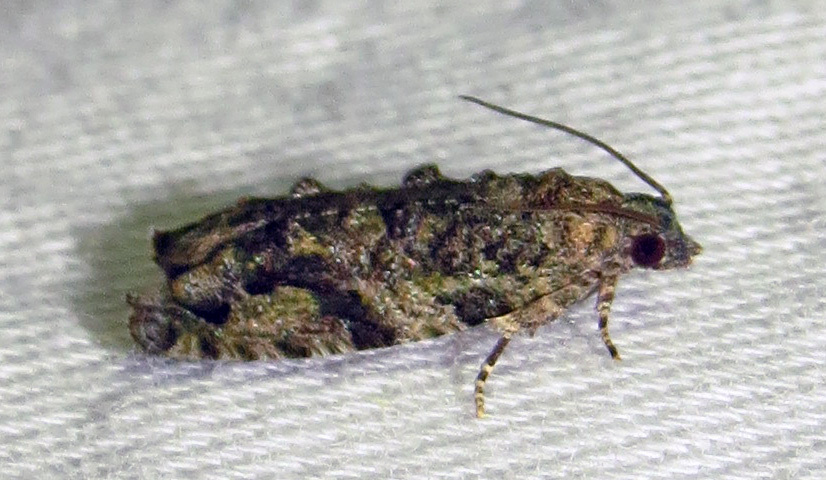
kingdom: Animalia
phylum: Arthropoda
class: Insecta
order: Lepidoptera
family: Tortricidae
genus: Proteoteras
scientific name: Proteoteras aesculana
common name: Maple twig borer moth
